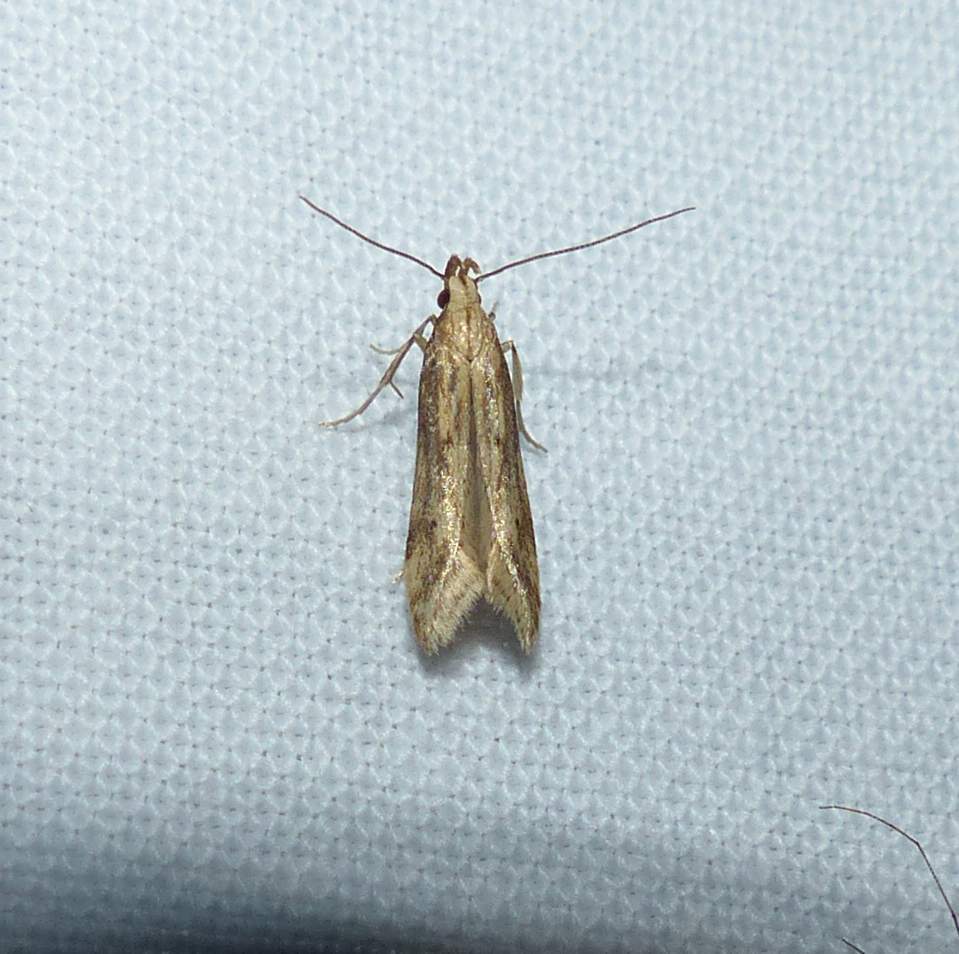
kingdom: Animalia
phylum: Arthropoda
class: Insecta
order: Lepidoptera
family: Gelechiidae
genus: Metzneria
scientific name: Metzneria lappella
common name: Burdock neb
